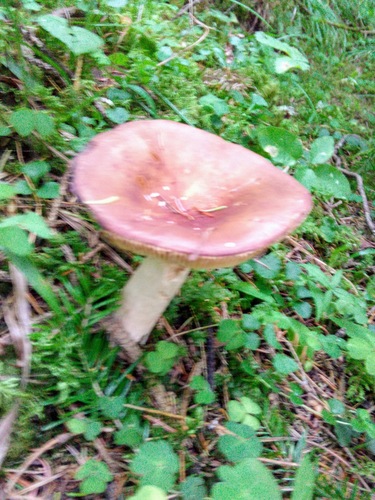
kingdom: Fungi
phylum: Basidiomycota
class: Agaricomycetes
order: Russulales
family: Russulaceae
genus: Russula
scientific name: Russula sanguinea
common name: Bloody brittlegill
